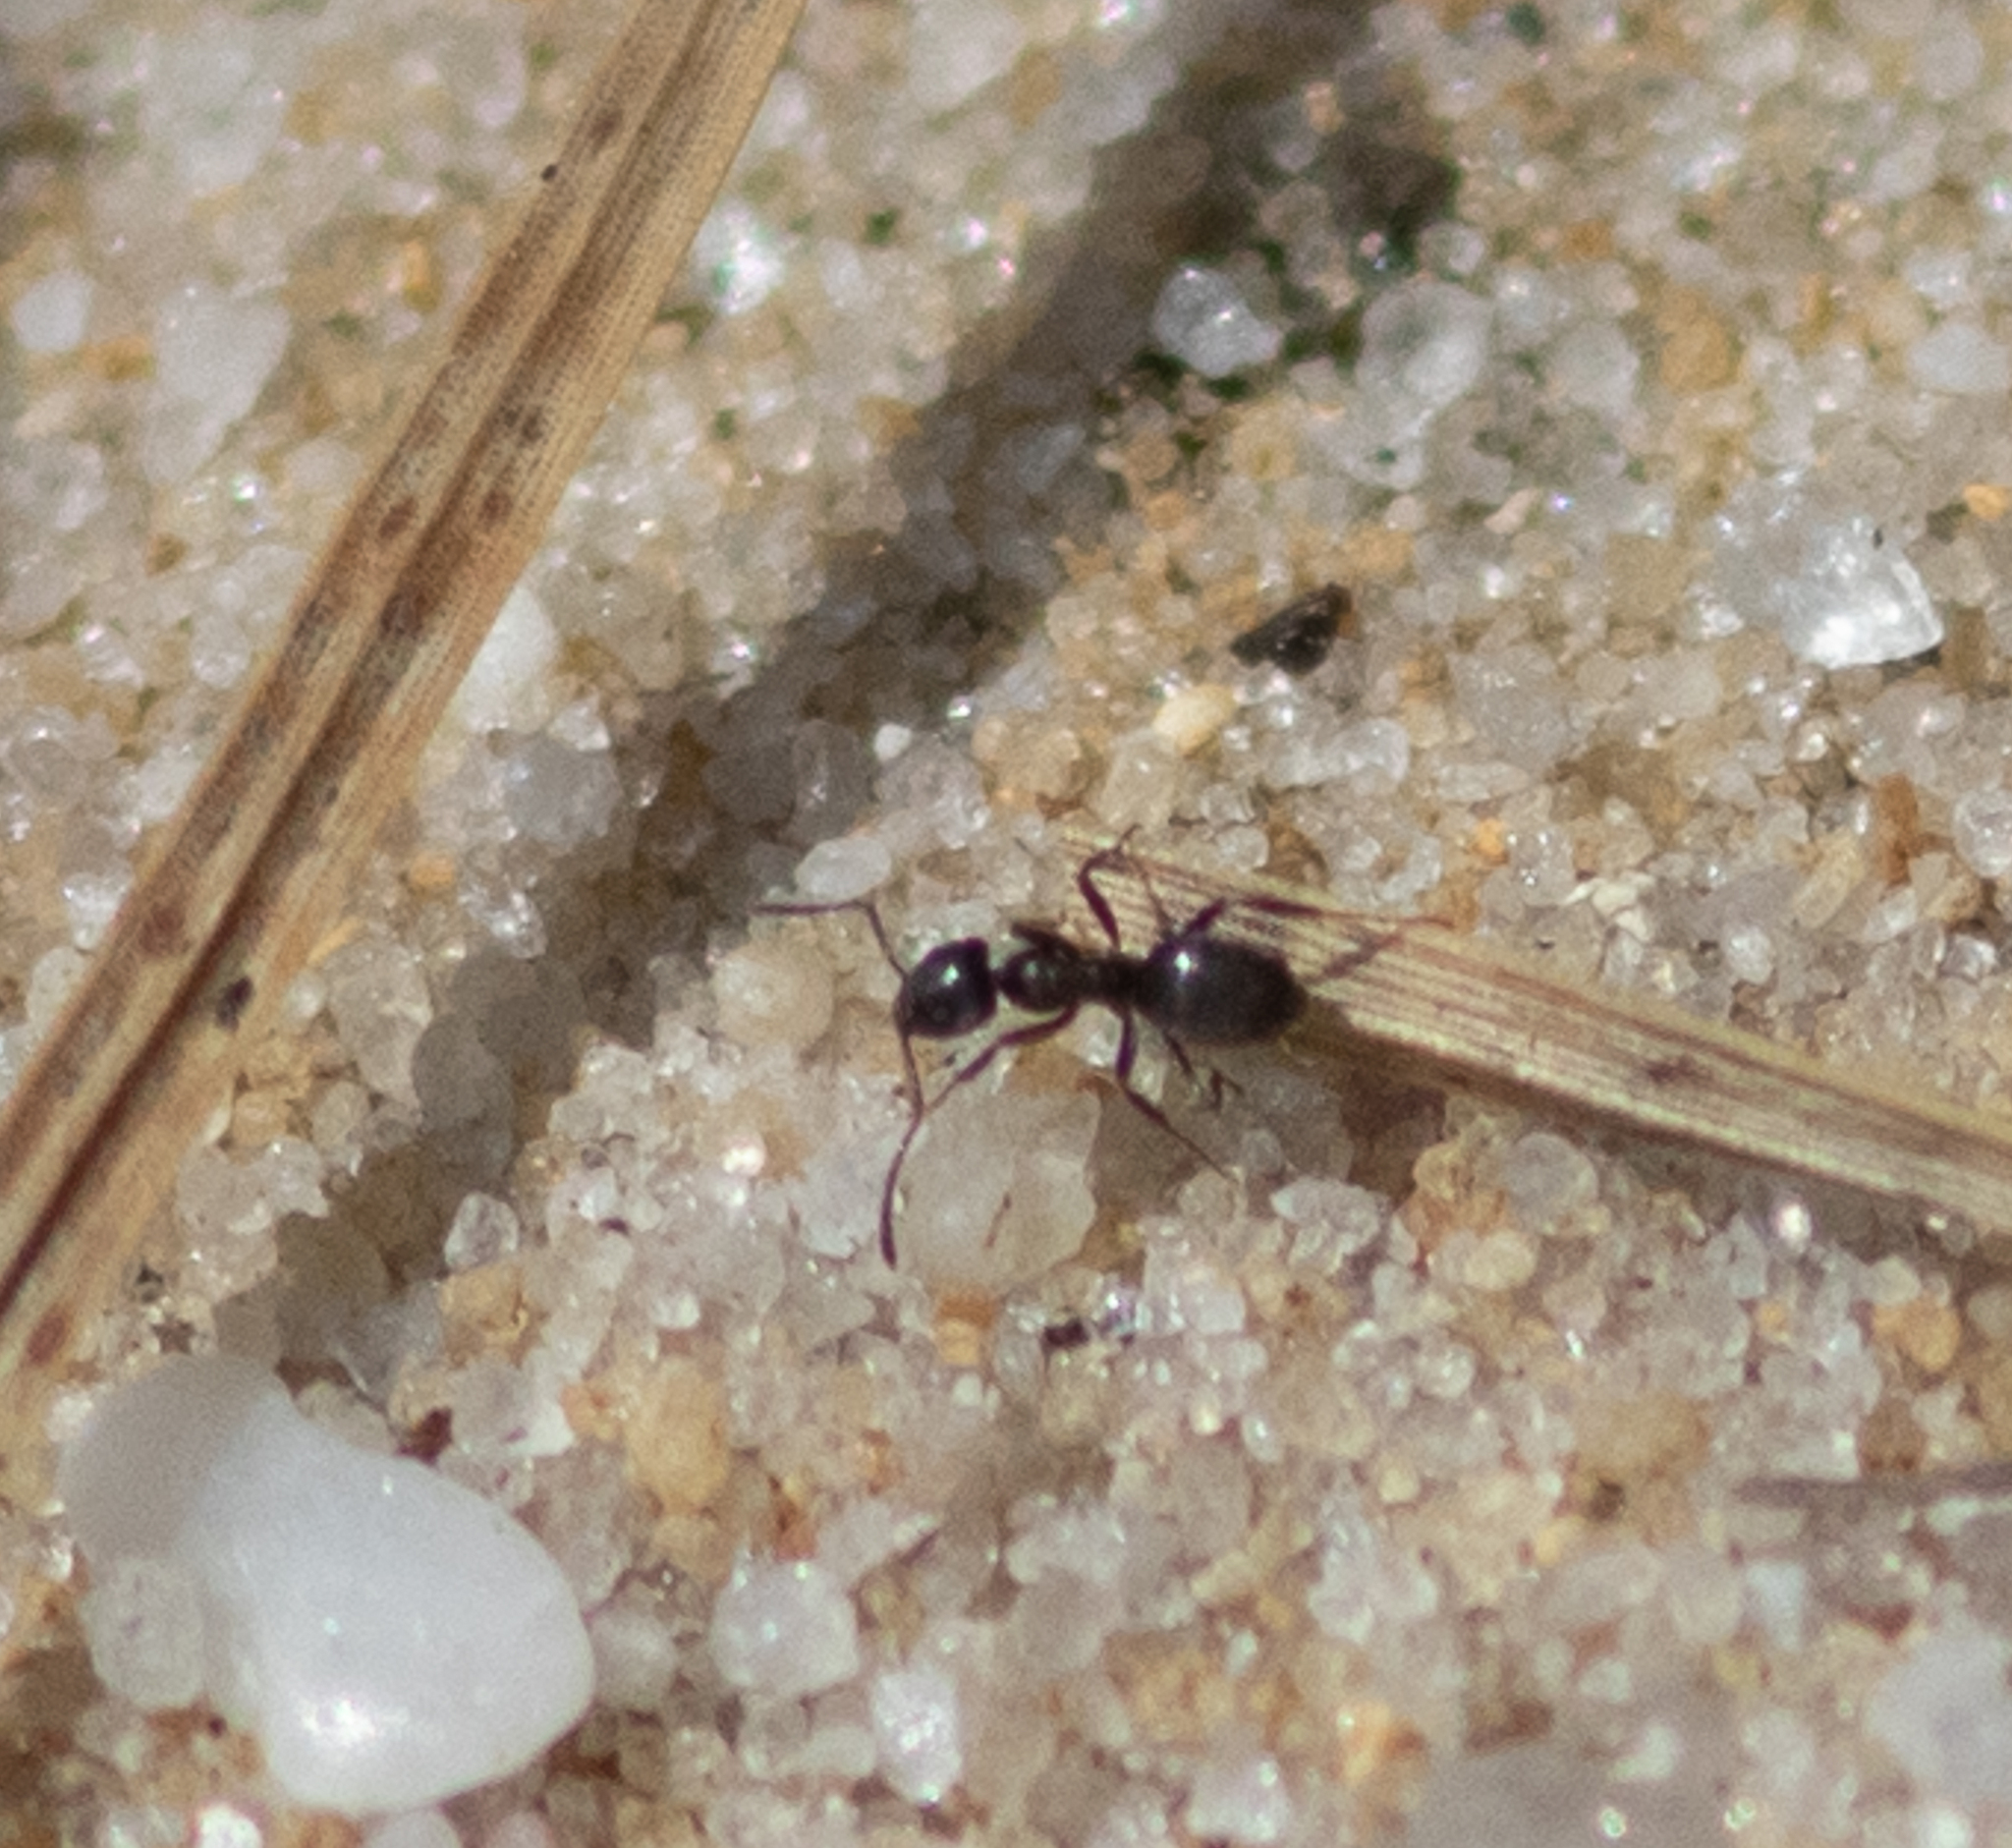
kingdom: Animalia
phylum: Arthropoda
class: Insecta
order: Hymenoptera
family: Formicidae
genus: Tapinoma
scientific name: Tapinoma sessile
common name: Odorous house ant
